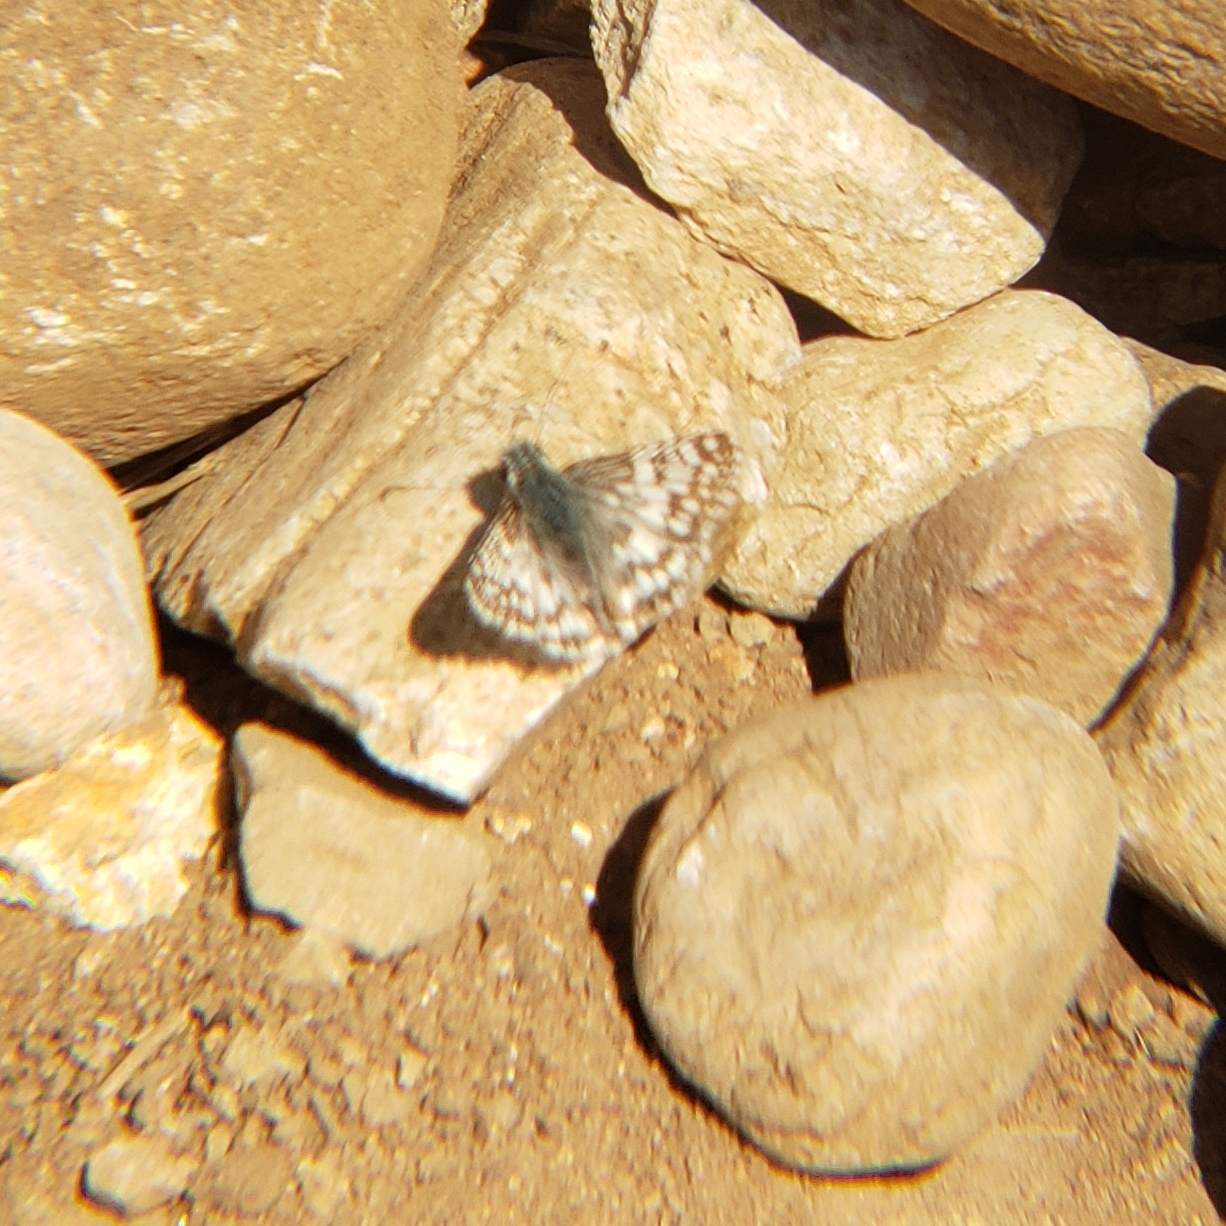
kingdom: Animalia
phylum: Arthropoda
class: Insecta
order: Lepidoptera
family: Hesperiidae
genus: Burnsius
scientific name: Burnsius albezens
